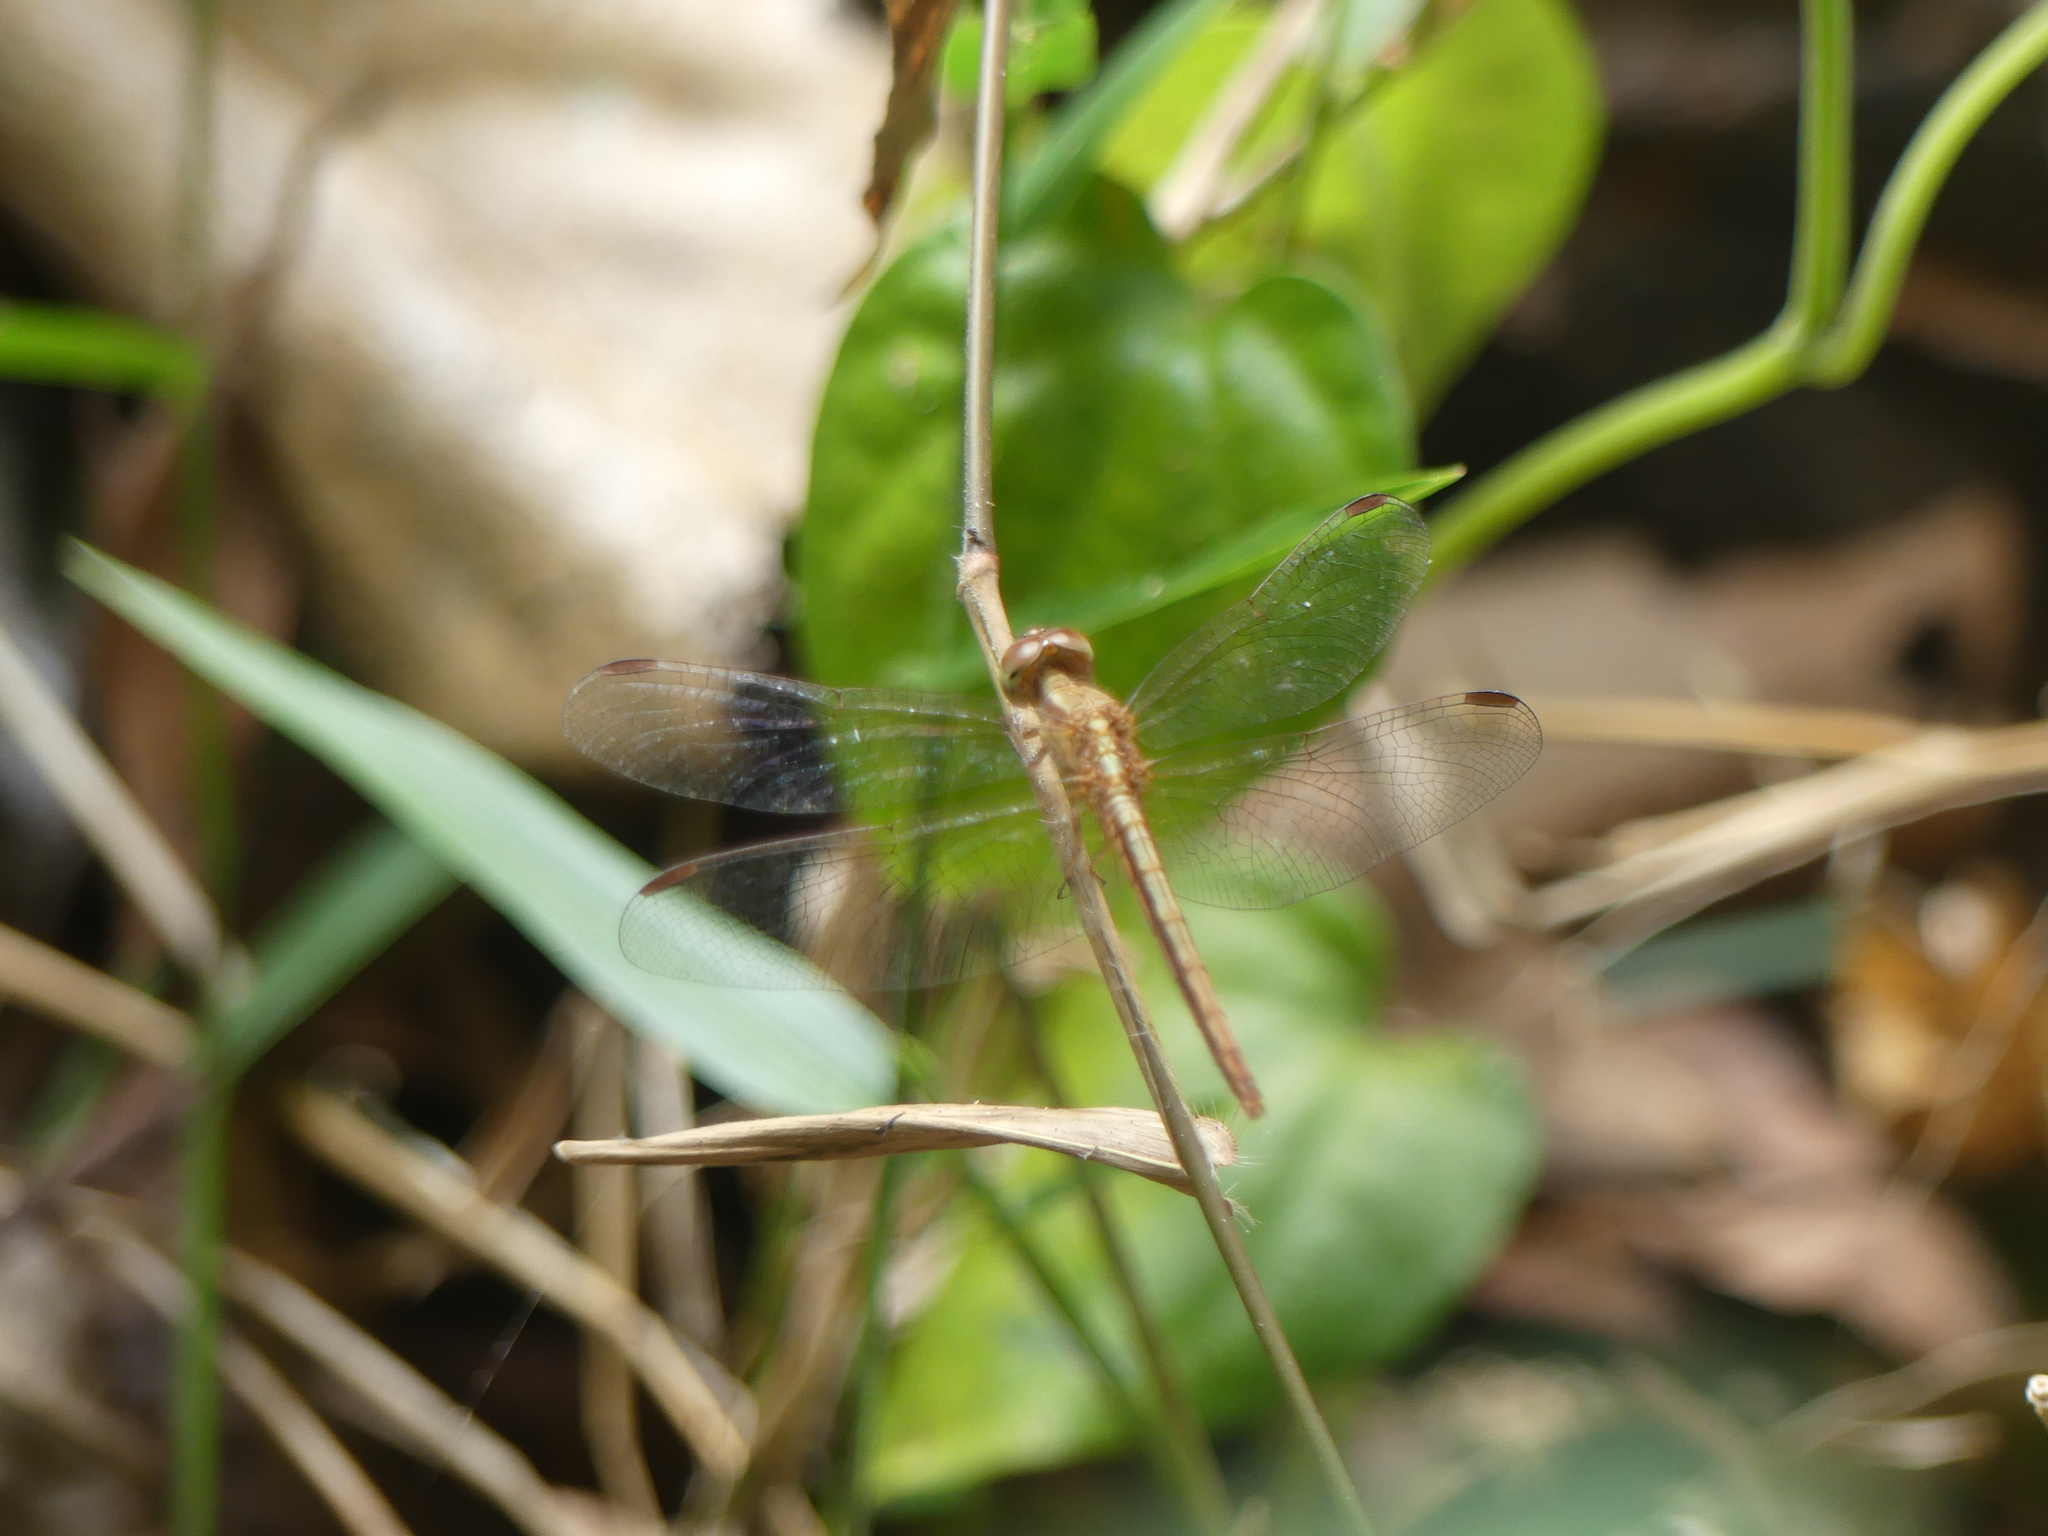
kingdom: Animalia
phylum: Arthropoda
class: Insecta
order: Odonata
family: Libellulidae
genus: Neurothemis
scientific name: Neurothemis intermedia
